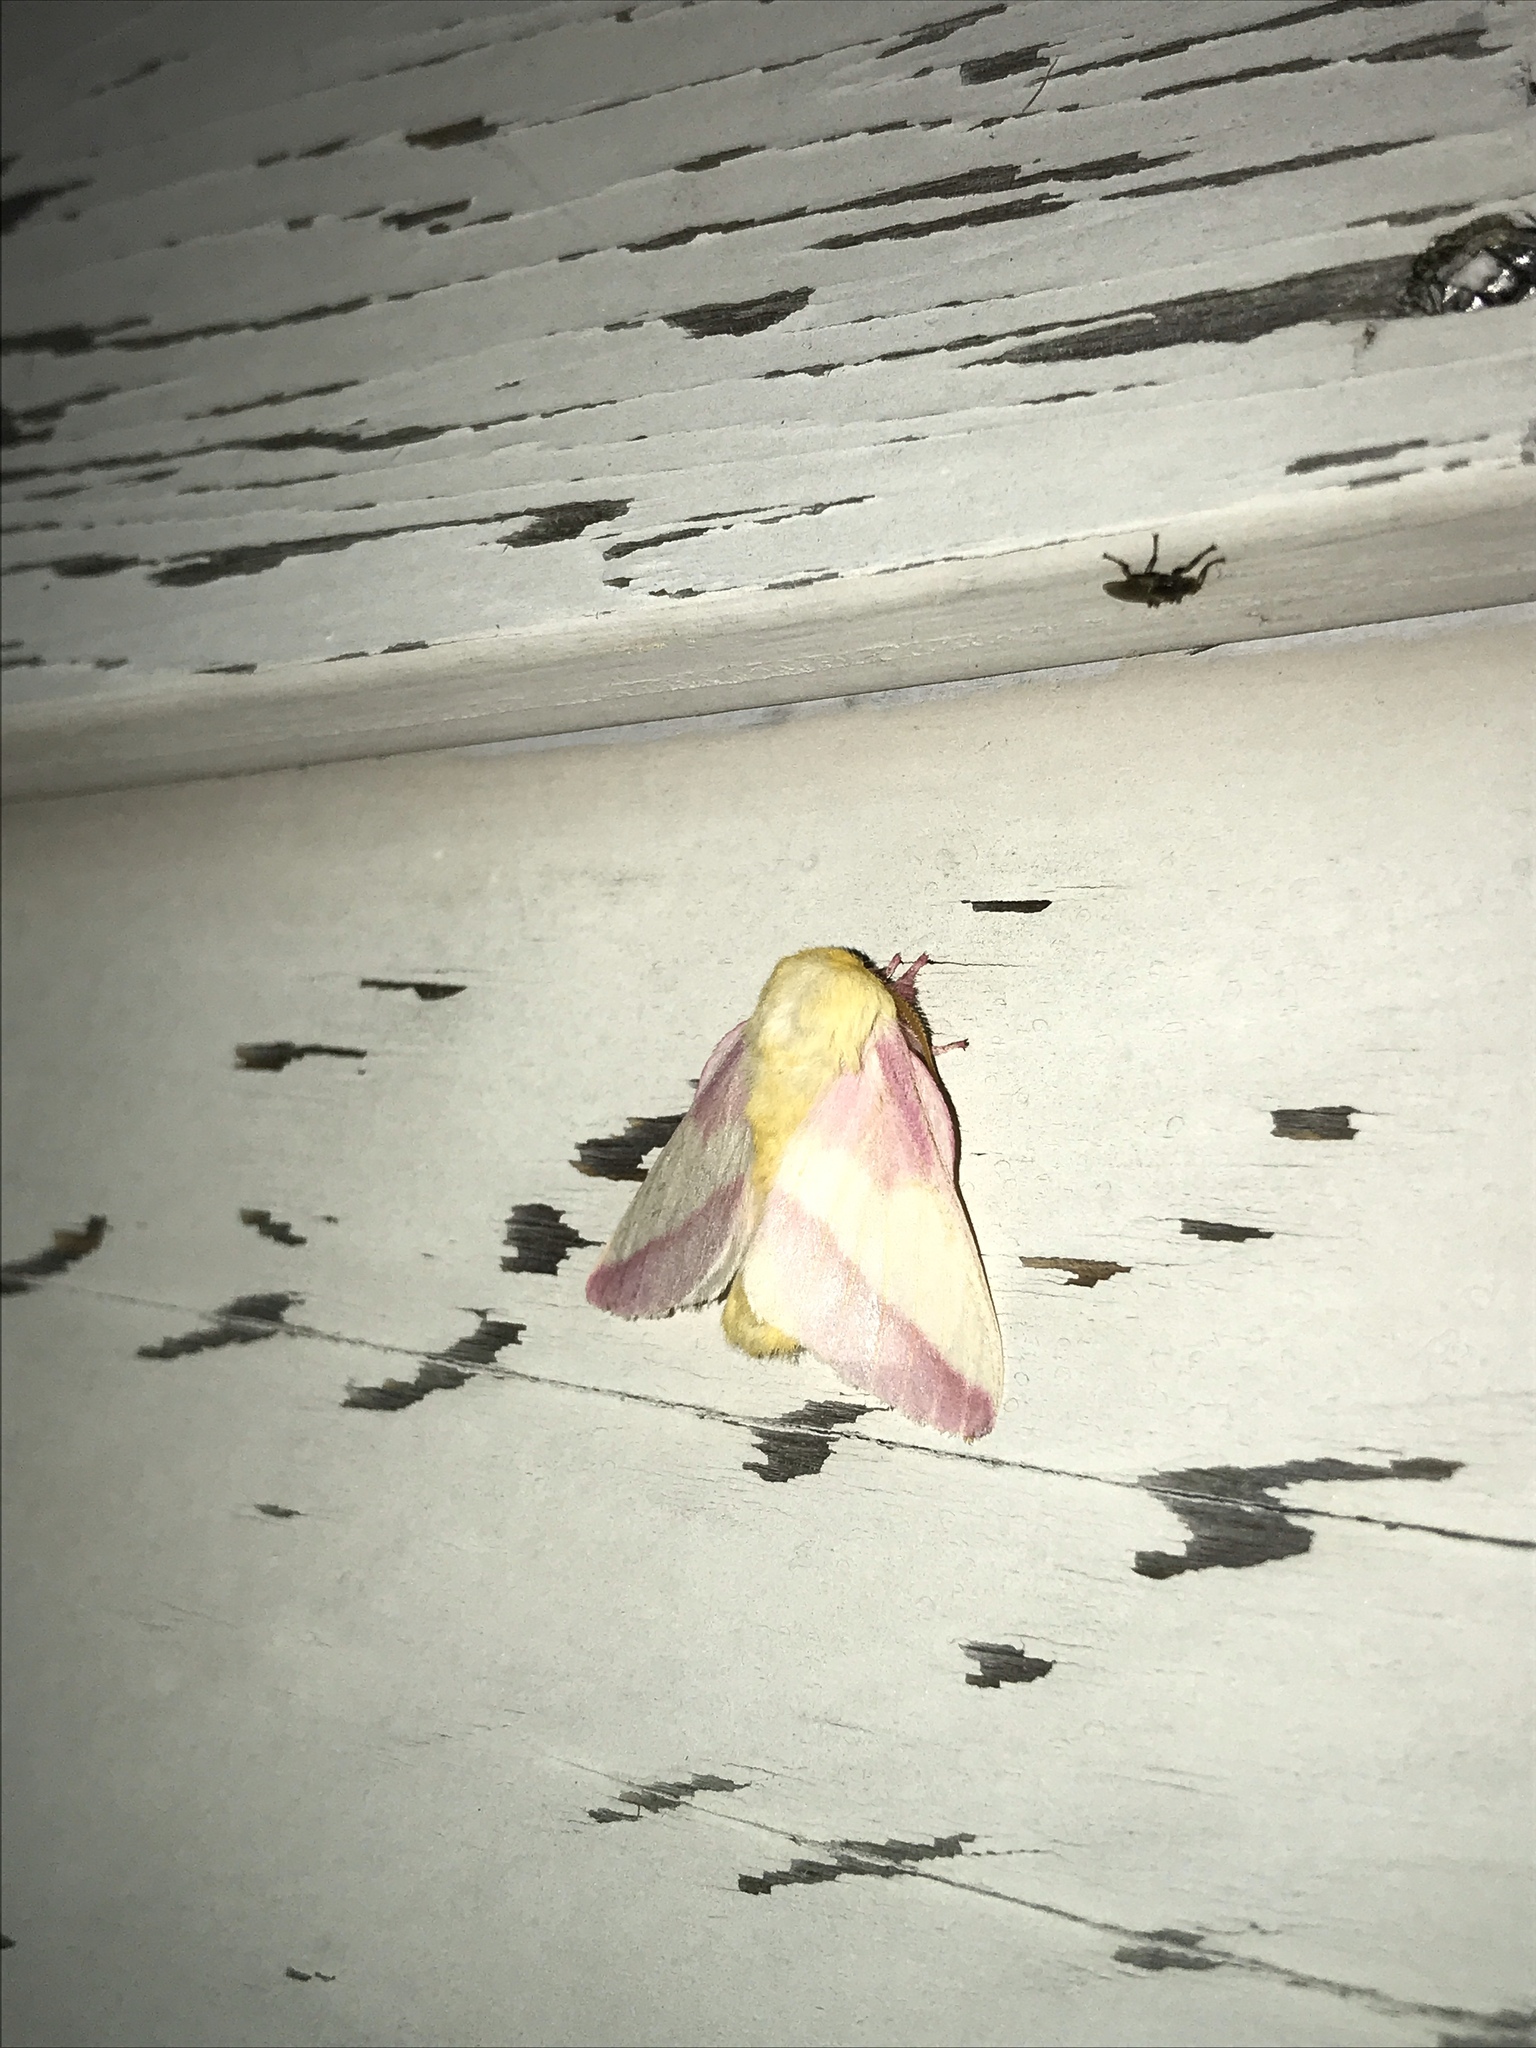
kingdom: Animalia
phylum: Arthropoda
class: Insecta
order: Lepidoptera
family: Saturniidae
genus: Dryocampa
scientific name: Dryocampa rubicunda
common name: Rosy maple moth
